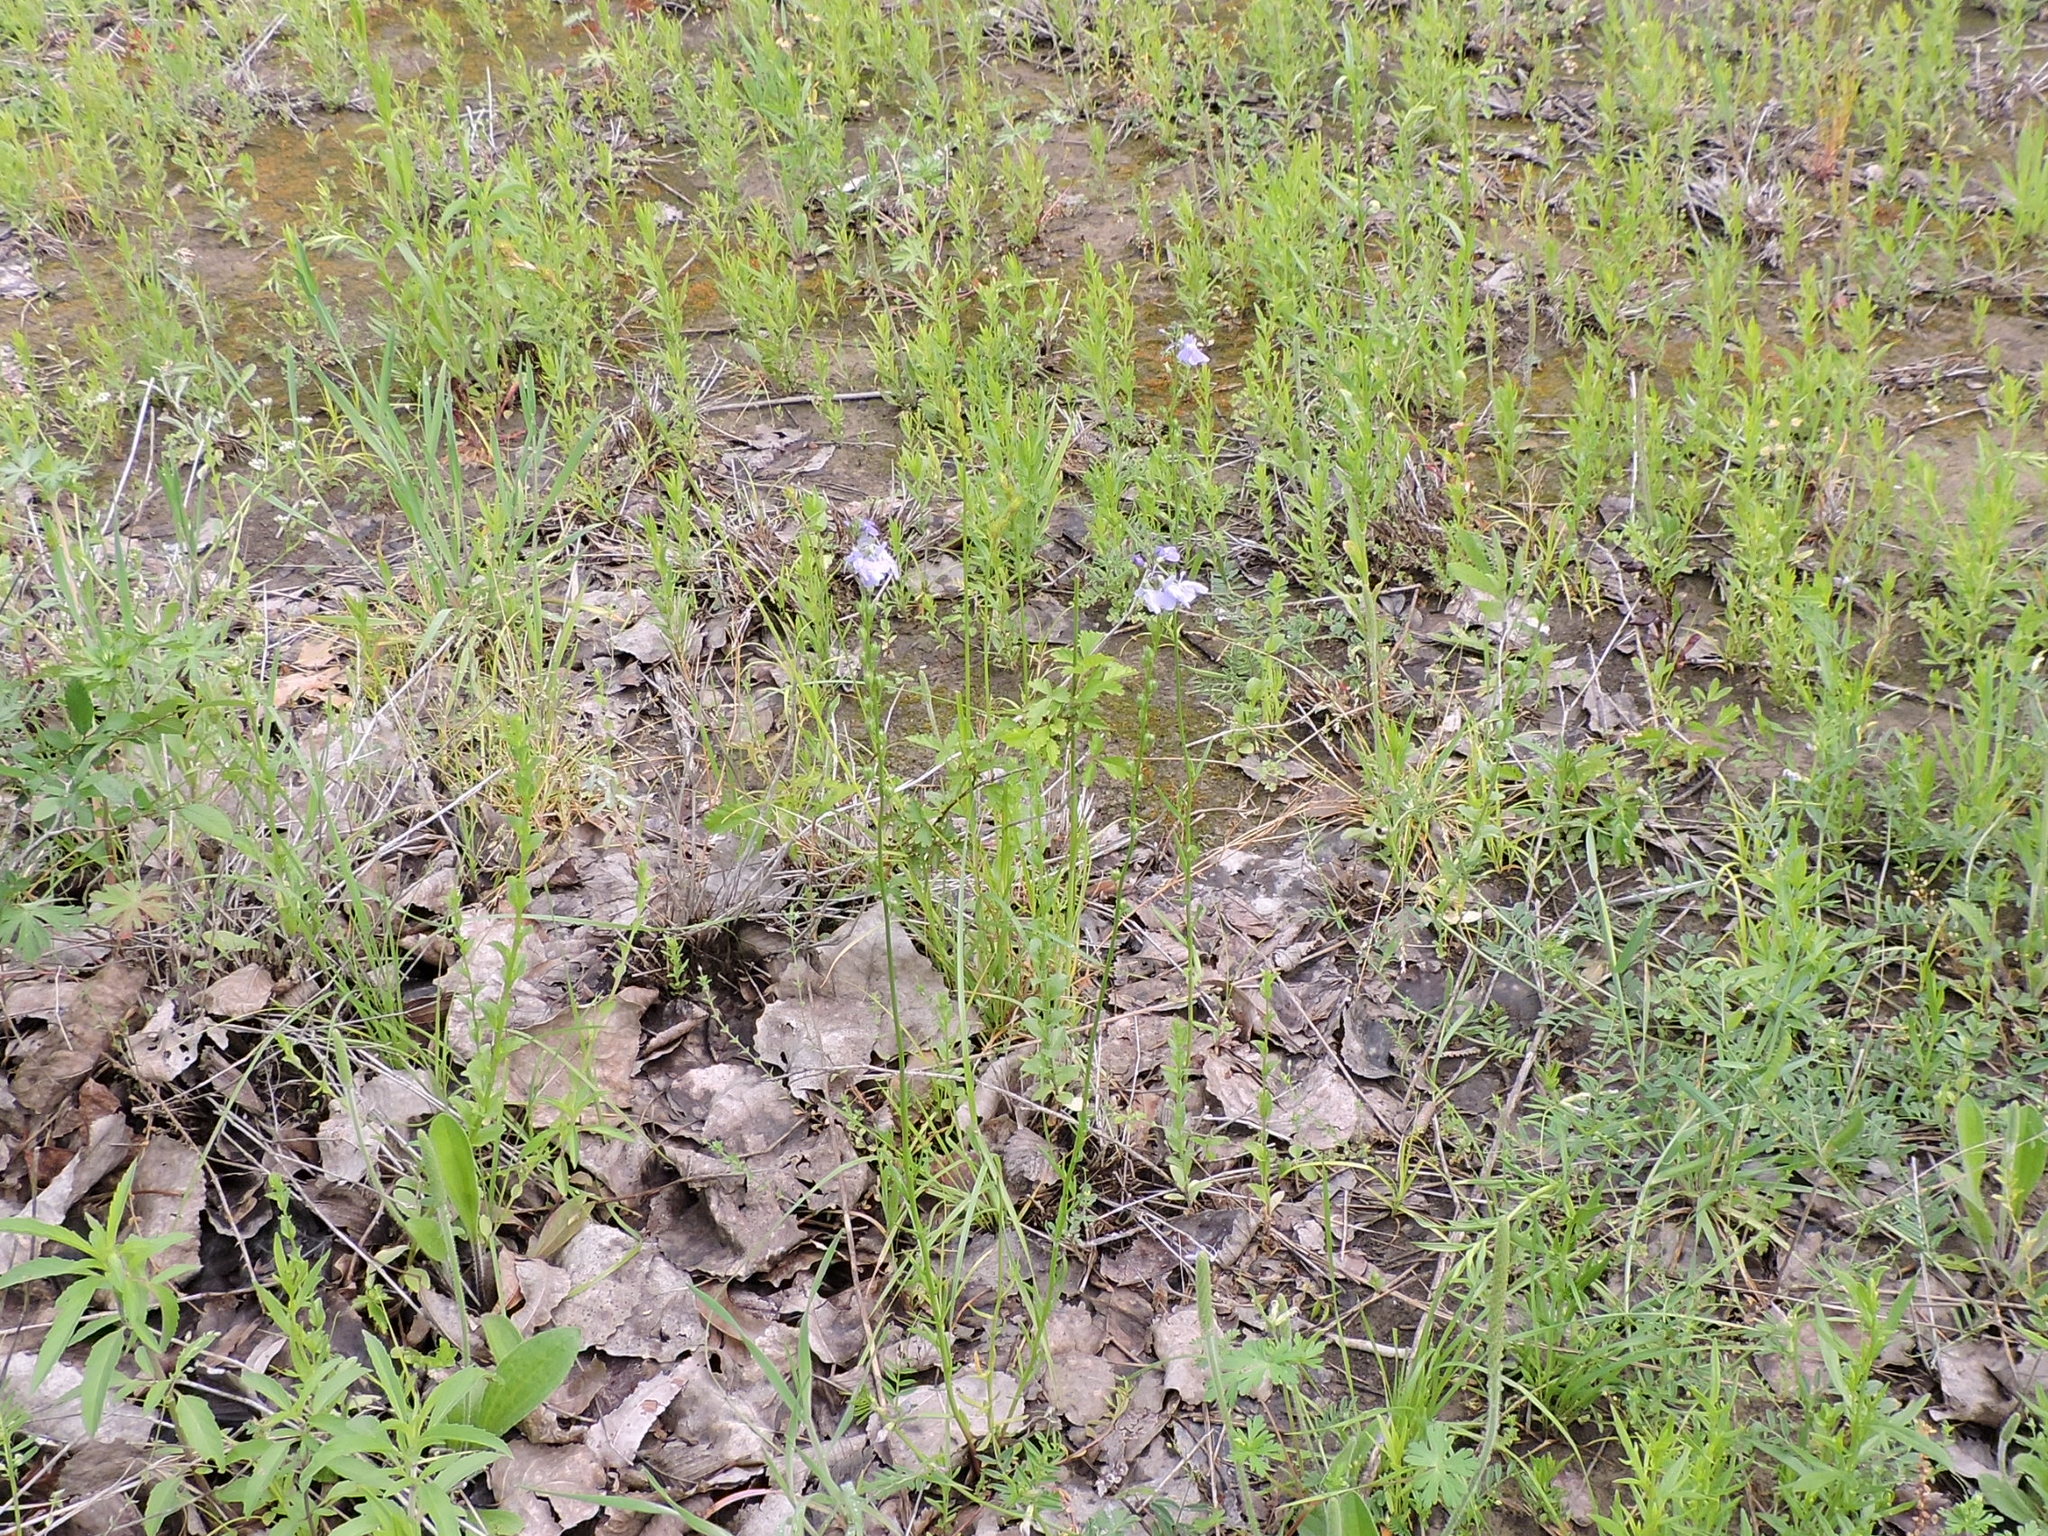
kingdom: Plantae
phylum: Tracheophyta
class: Magnoliopsida
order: Lamiales
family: Plantaginaceae
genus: Nuttallanthus
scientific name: Nuttallanthus texanus
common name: Texas toadflax
